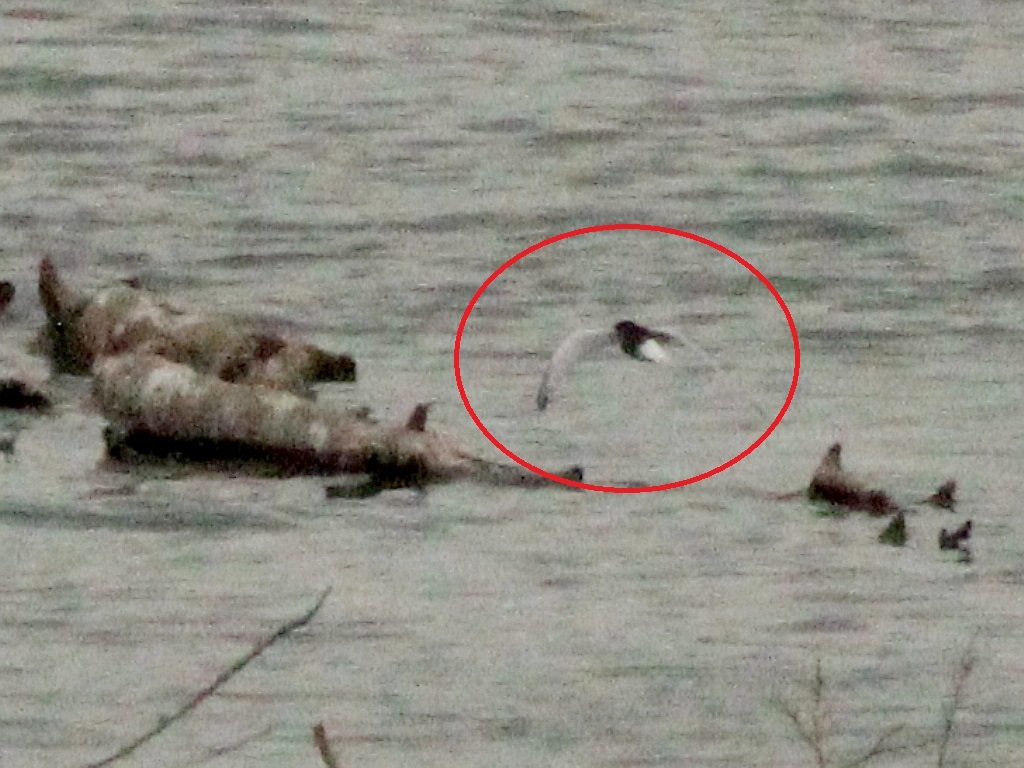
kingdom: Animalia
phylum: Chordata
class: Aves
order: Charadriiformes
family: Laridae
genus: Chlidonias
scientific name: Chlidonias leucopterus
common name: White-winged tern
